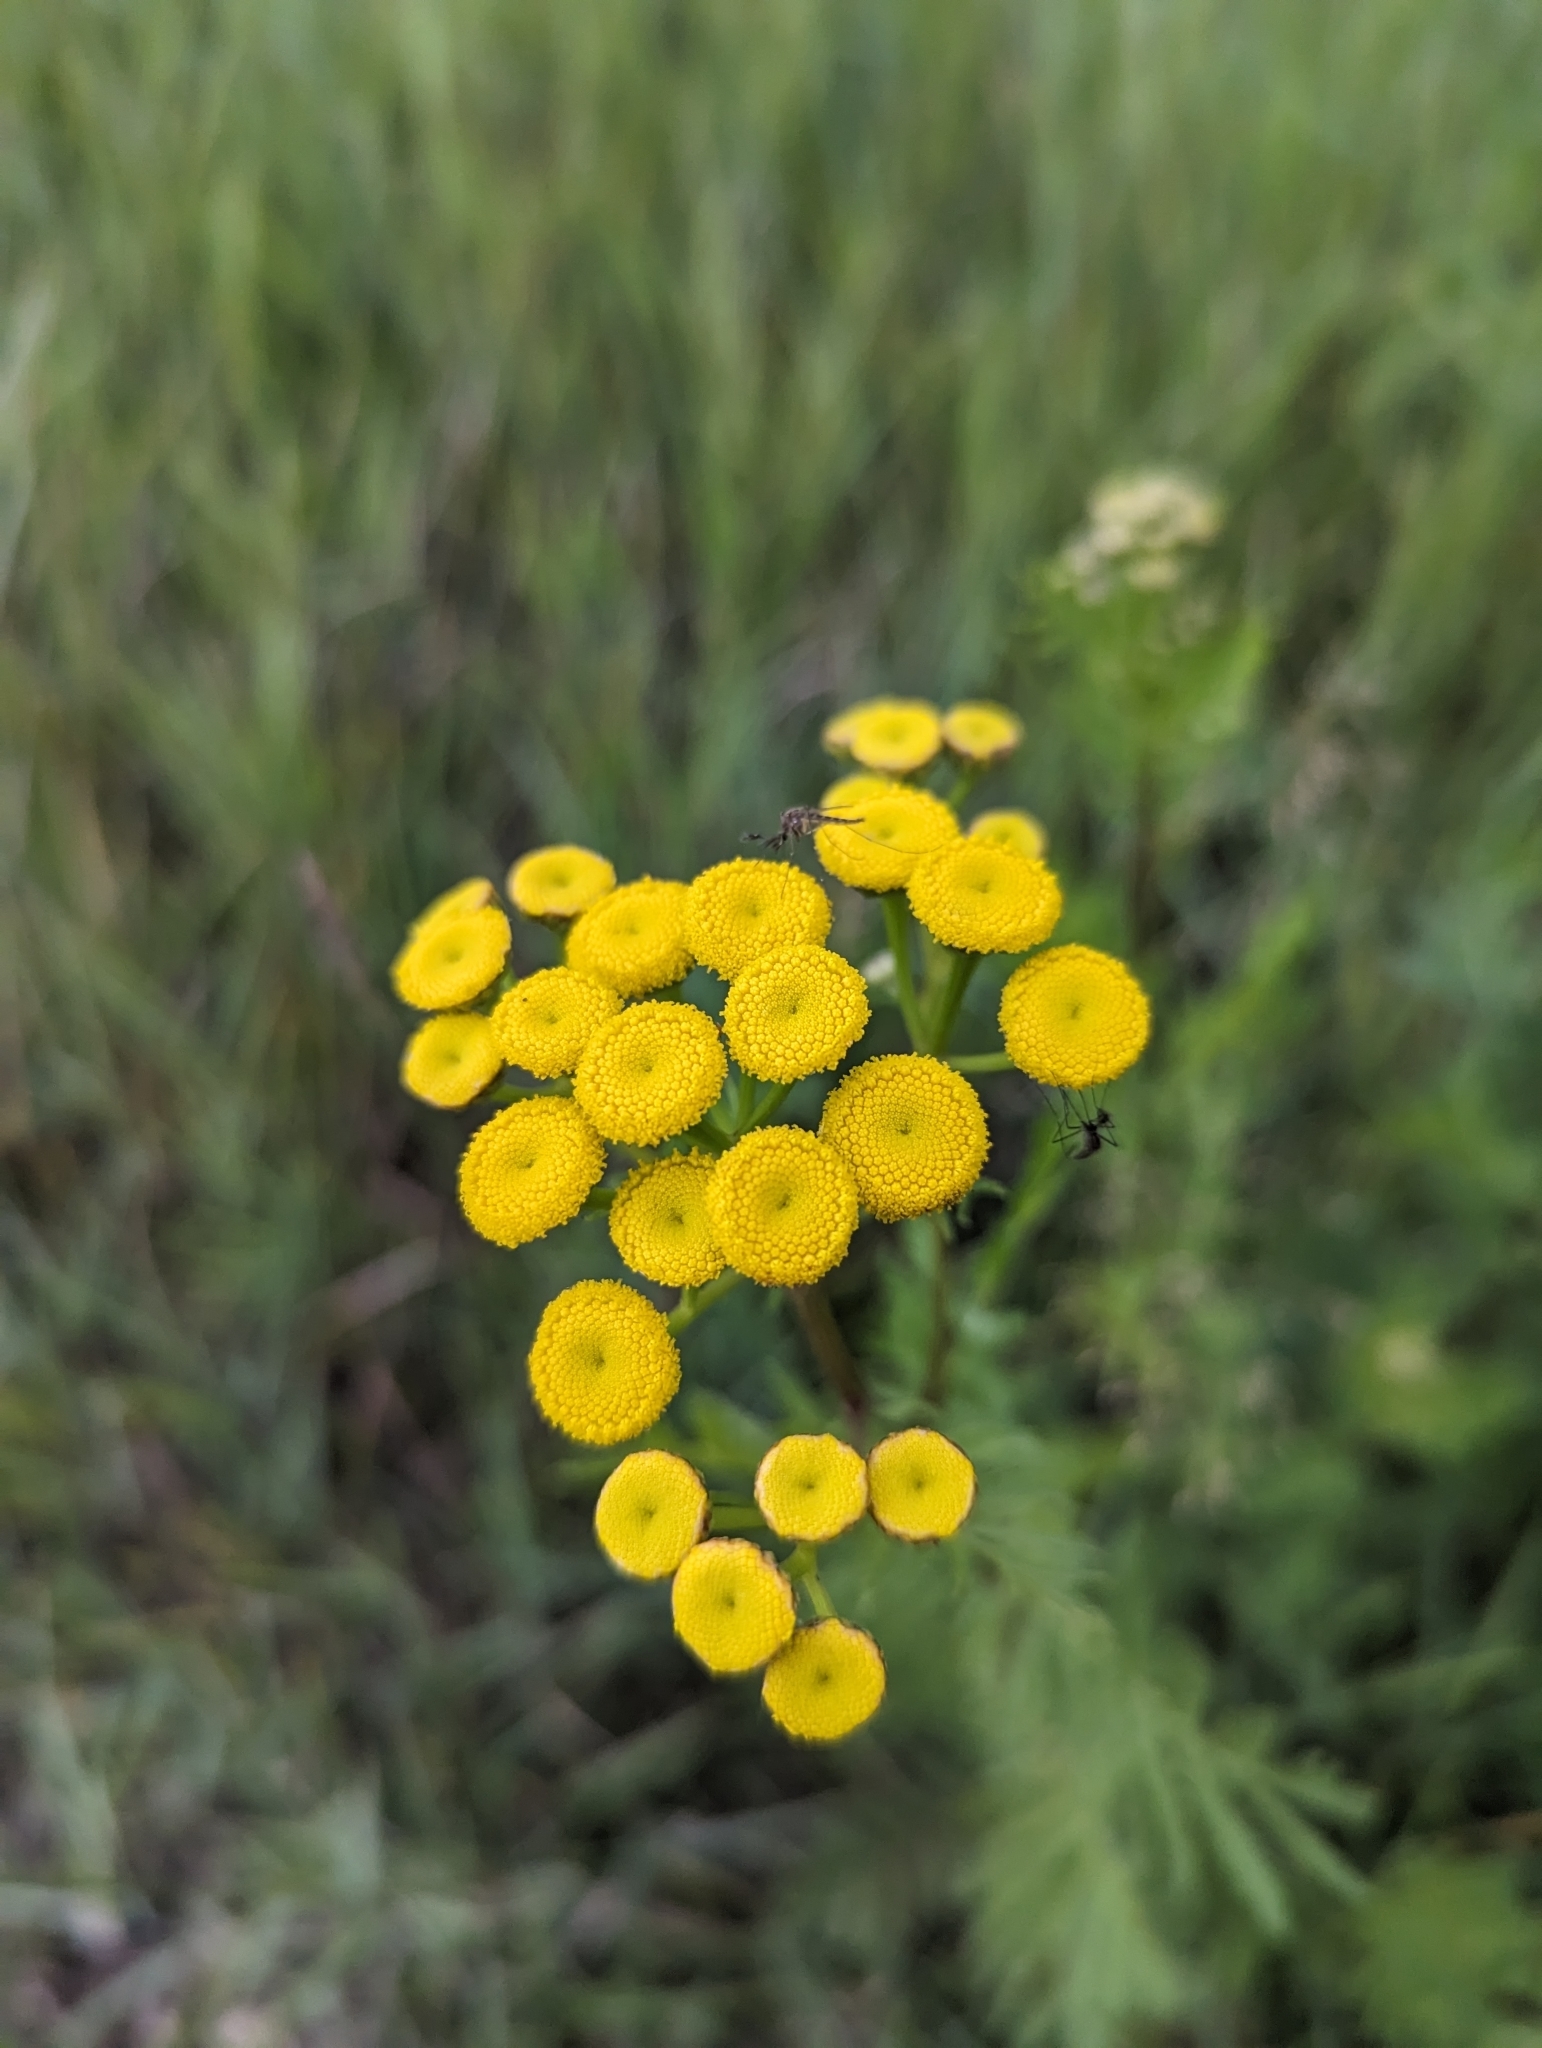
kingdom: Plantae
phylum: Tracheophyta
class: Magnoliopsida
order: Asterales
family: Asteraceae
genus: Tanacetum
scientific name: Tanacetum vulgare
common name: Common tansy
